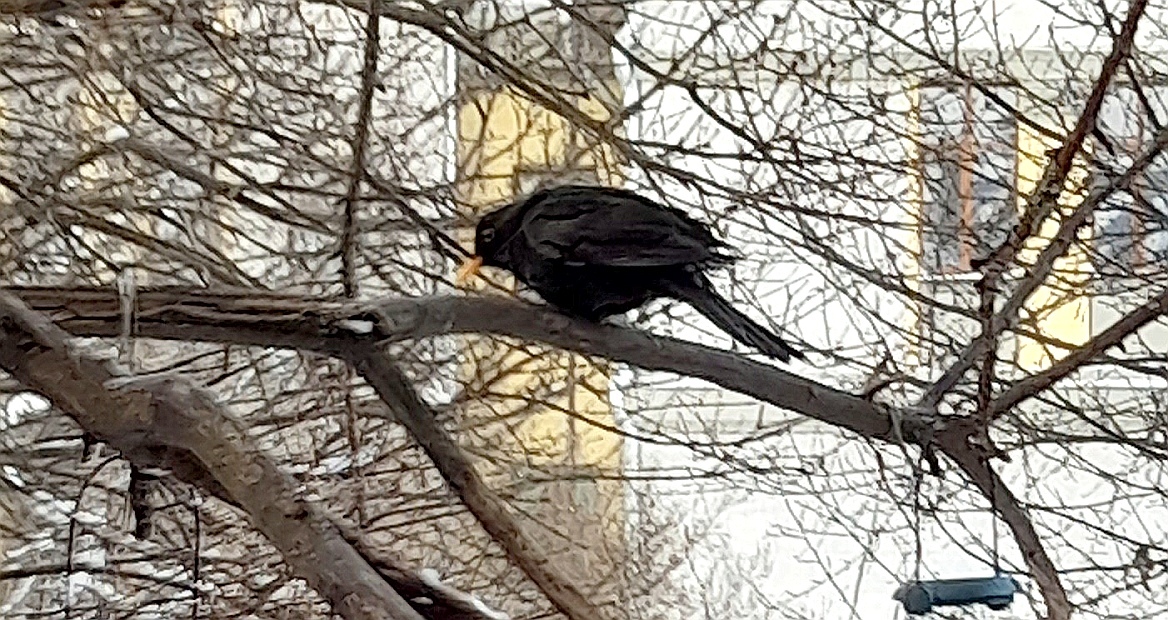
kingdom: Animalia
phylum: Chordata
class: Aves
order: Passeriformes
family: Turdidae
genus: Turdus
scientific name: Turdus merula
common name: Common blackbird
